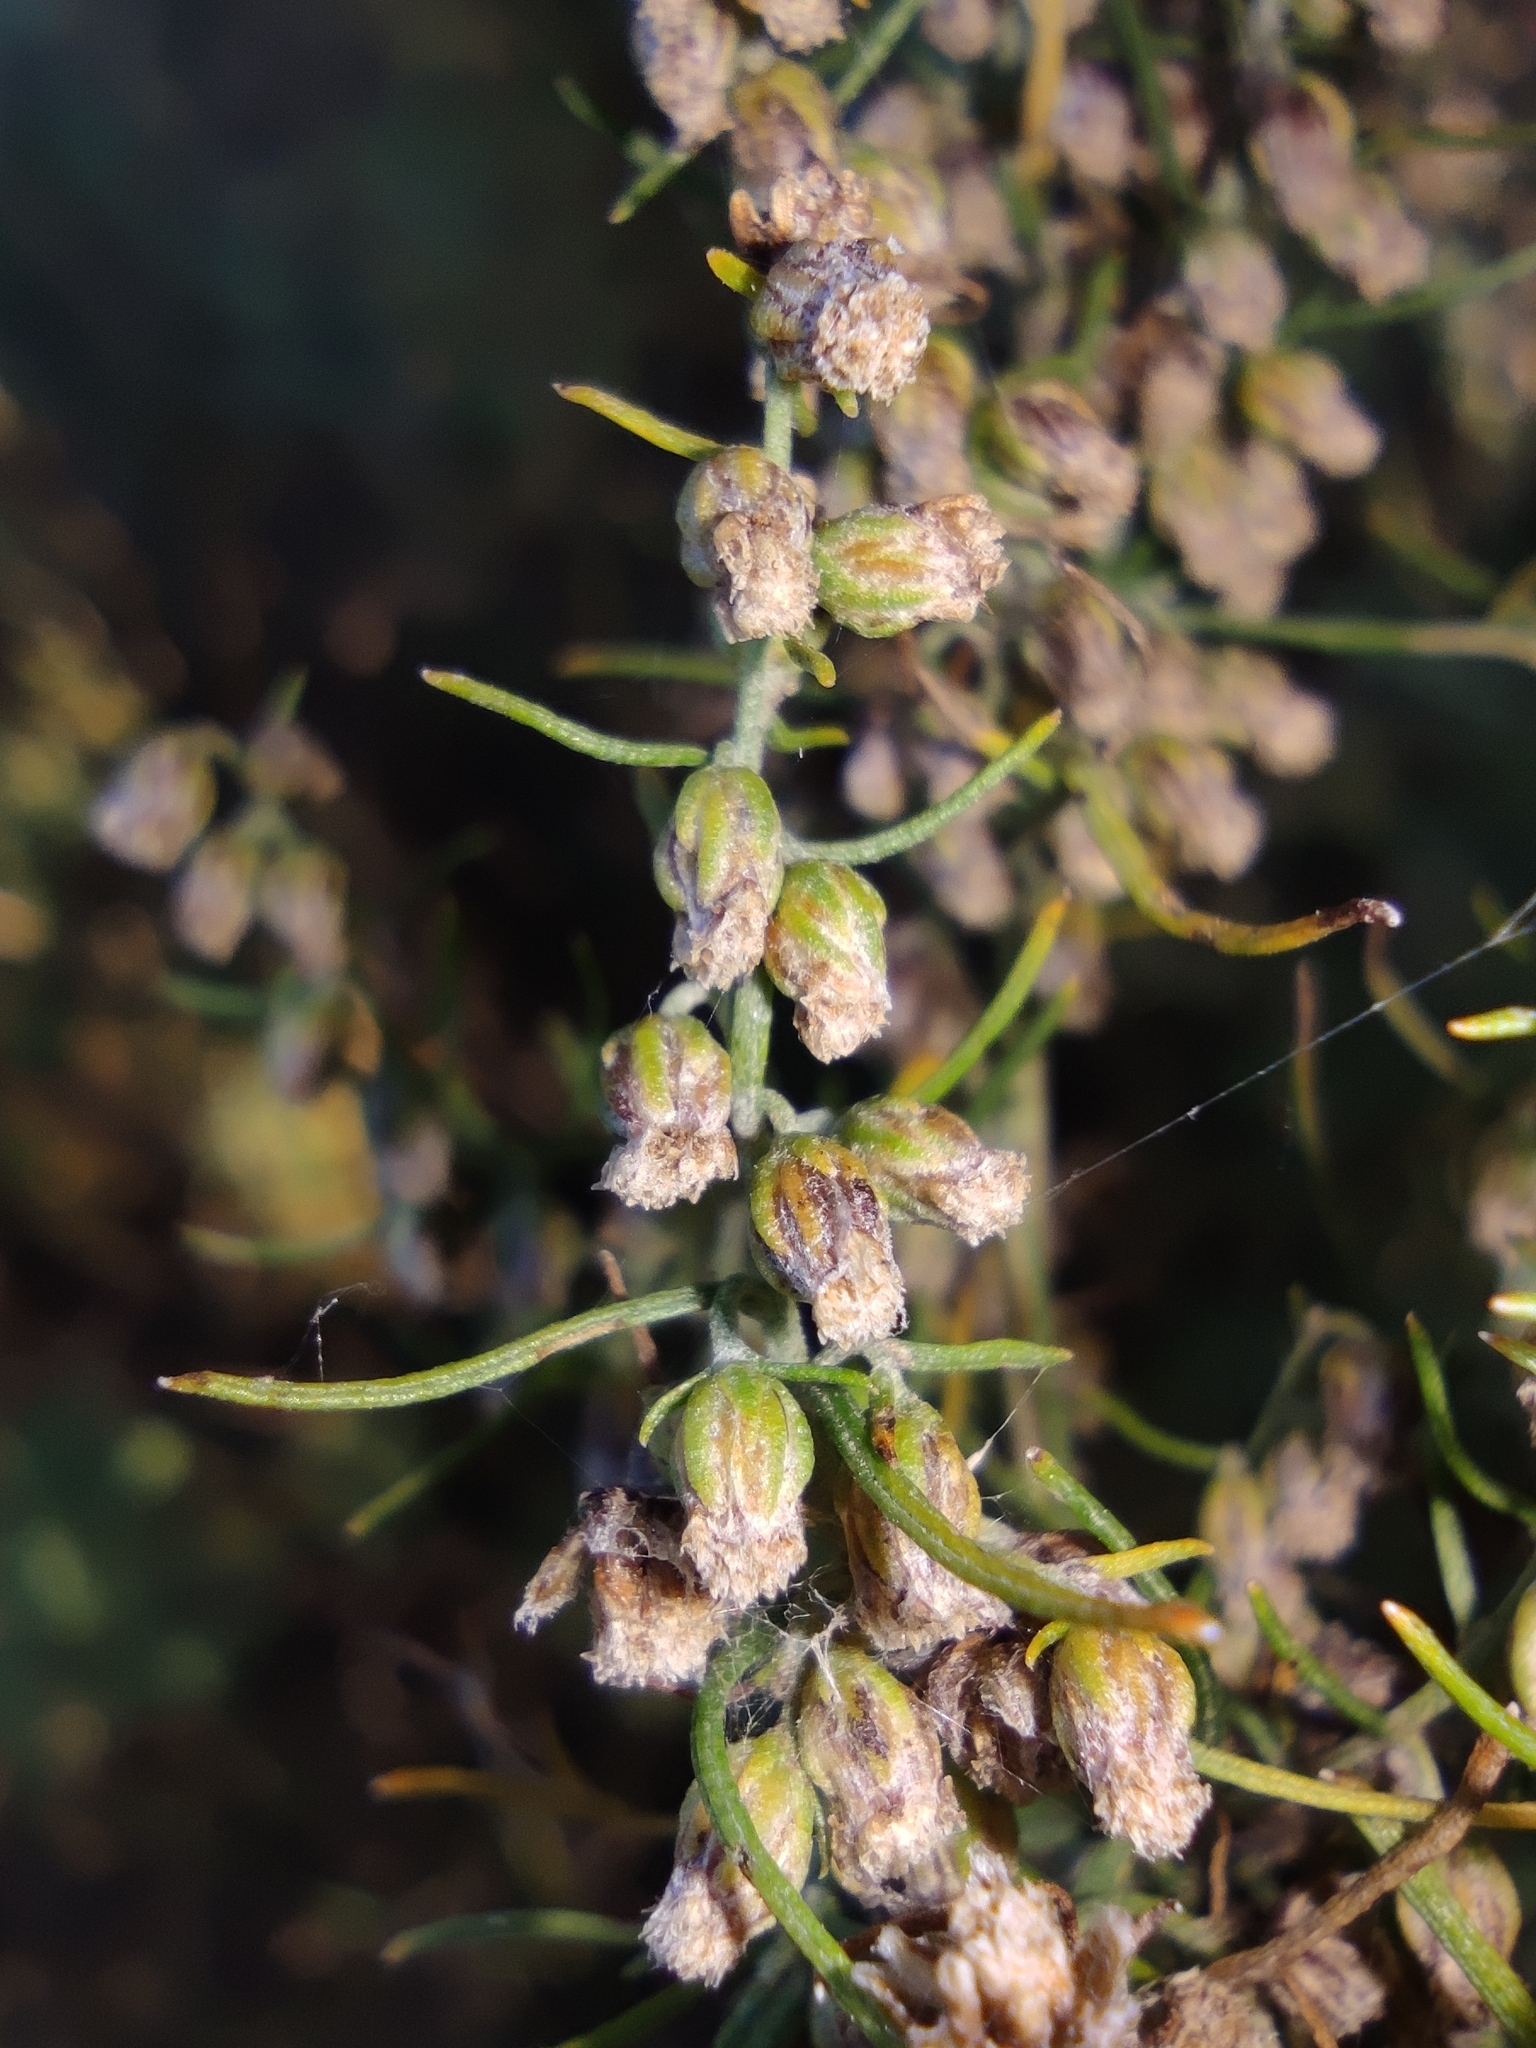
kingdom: Plantae
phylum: Tracheophyta
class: Magnoliopsida
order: Asterales
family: Asteraceae
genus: Artemisia
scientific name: Artemisia abrotanum
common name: Southernwood
